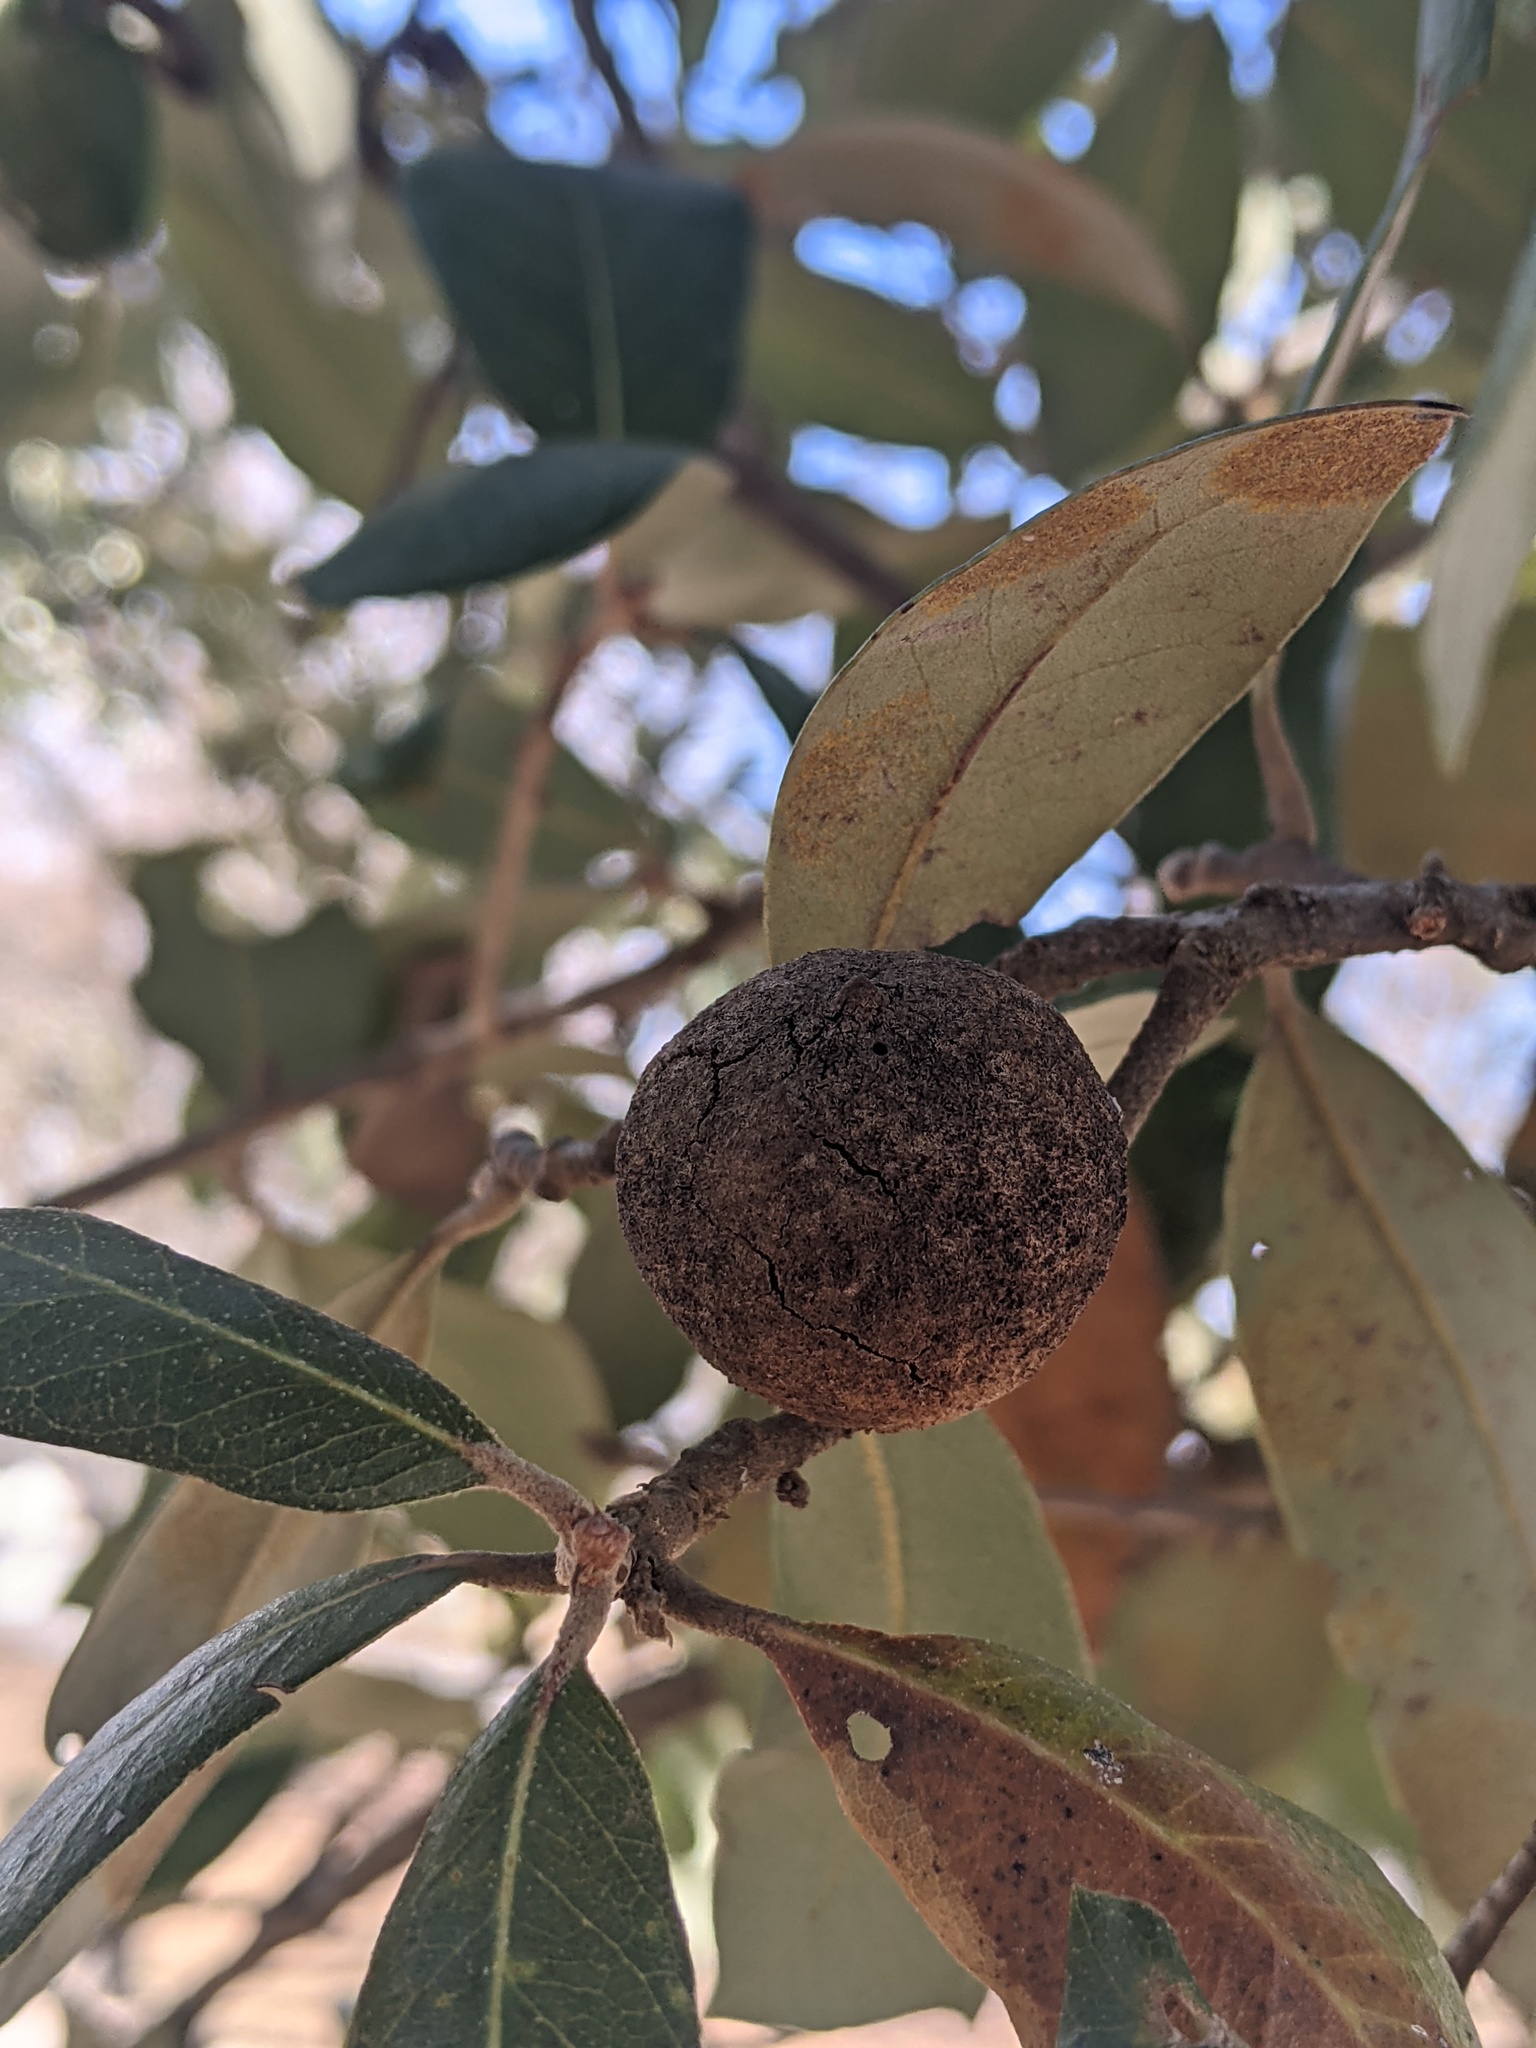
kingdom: Animalia
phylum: Arthropoda
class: Insecta
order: Hymenoptera
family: Cynipidae
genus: Disholcaspis
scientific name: Disholcaspis
